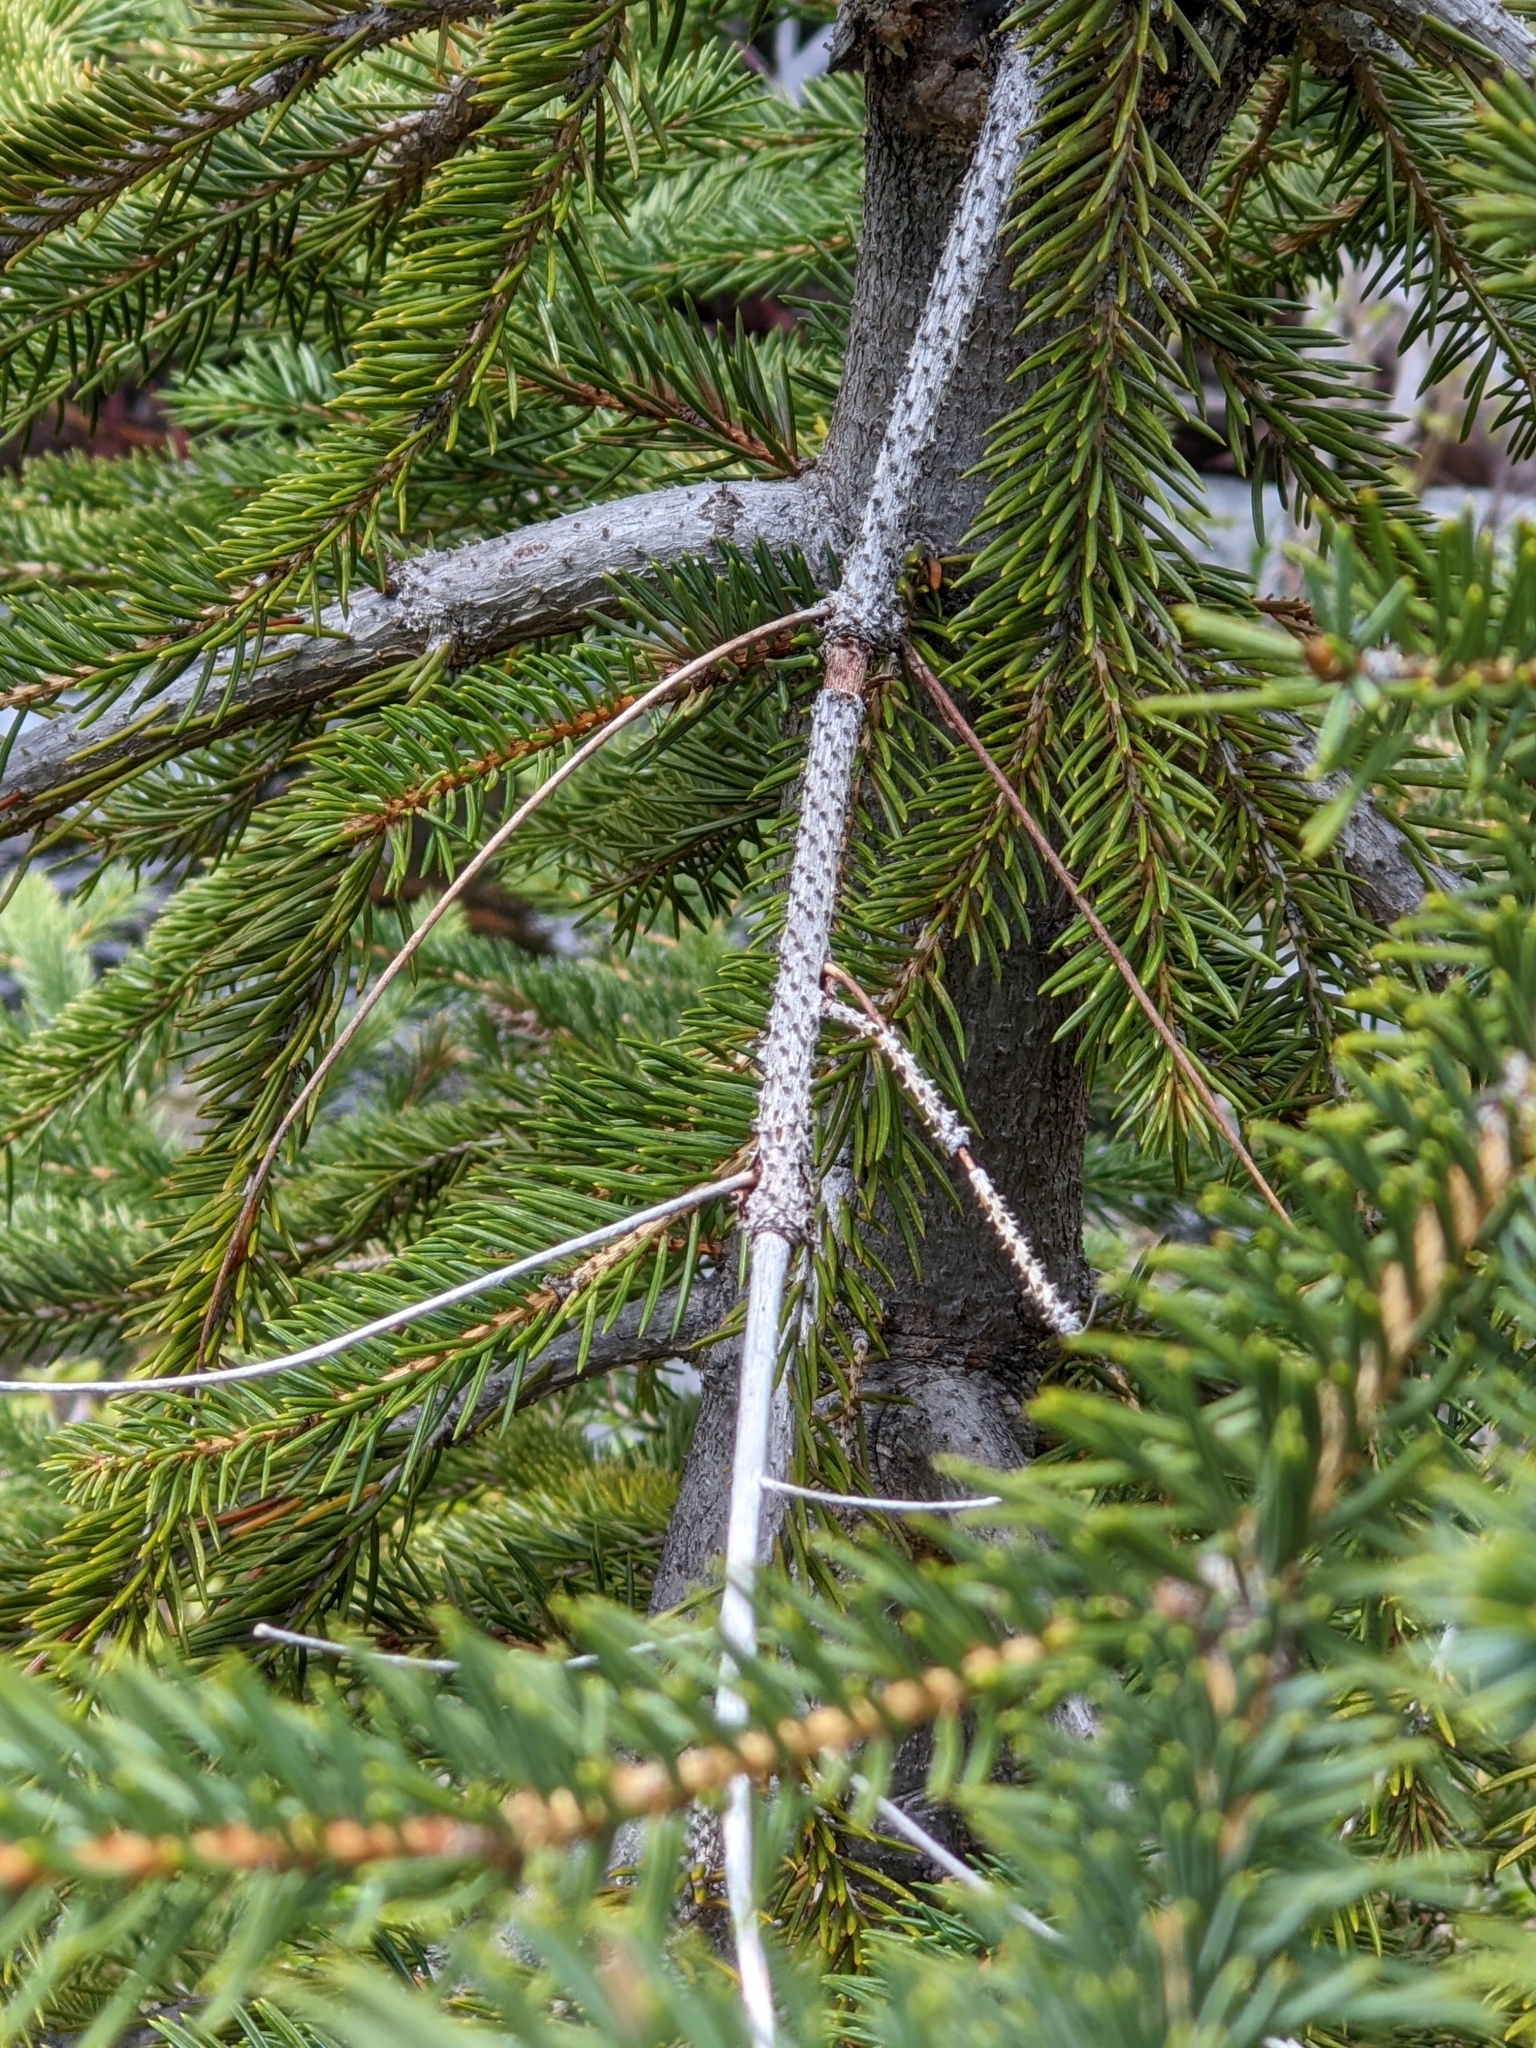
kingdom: Plantae
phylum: Tracheophyta
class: Pinopsida
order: Pinales
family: Pinaceae
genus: Picea
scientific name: Picea engelmannii
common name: Engelmann spruce
